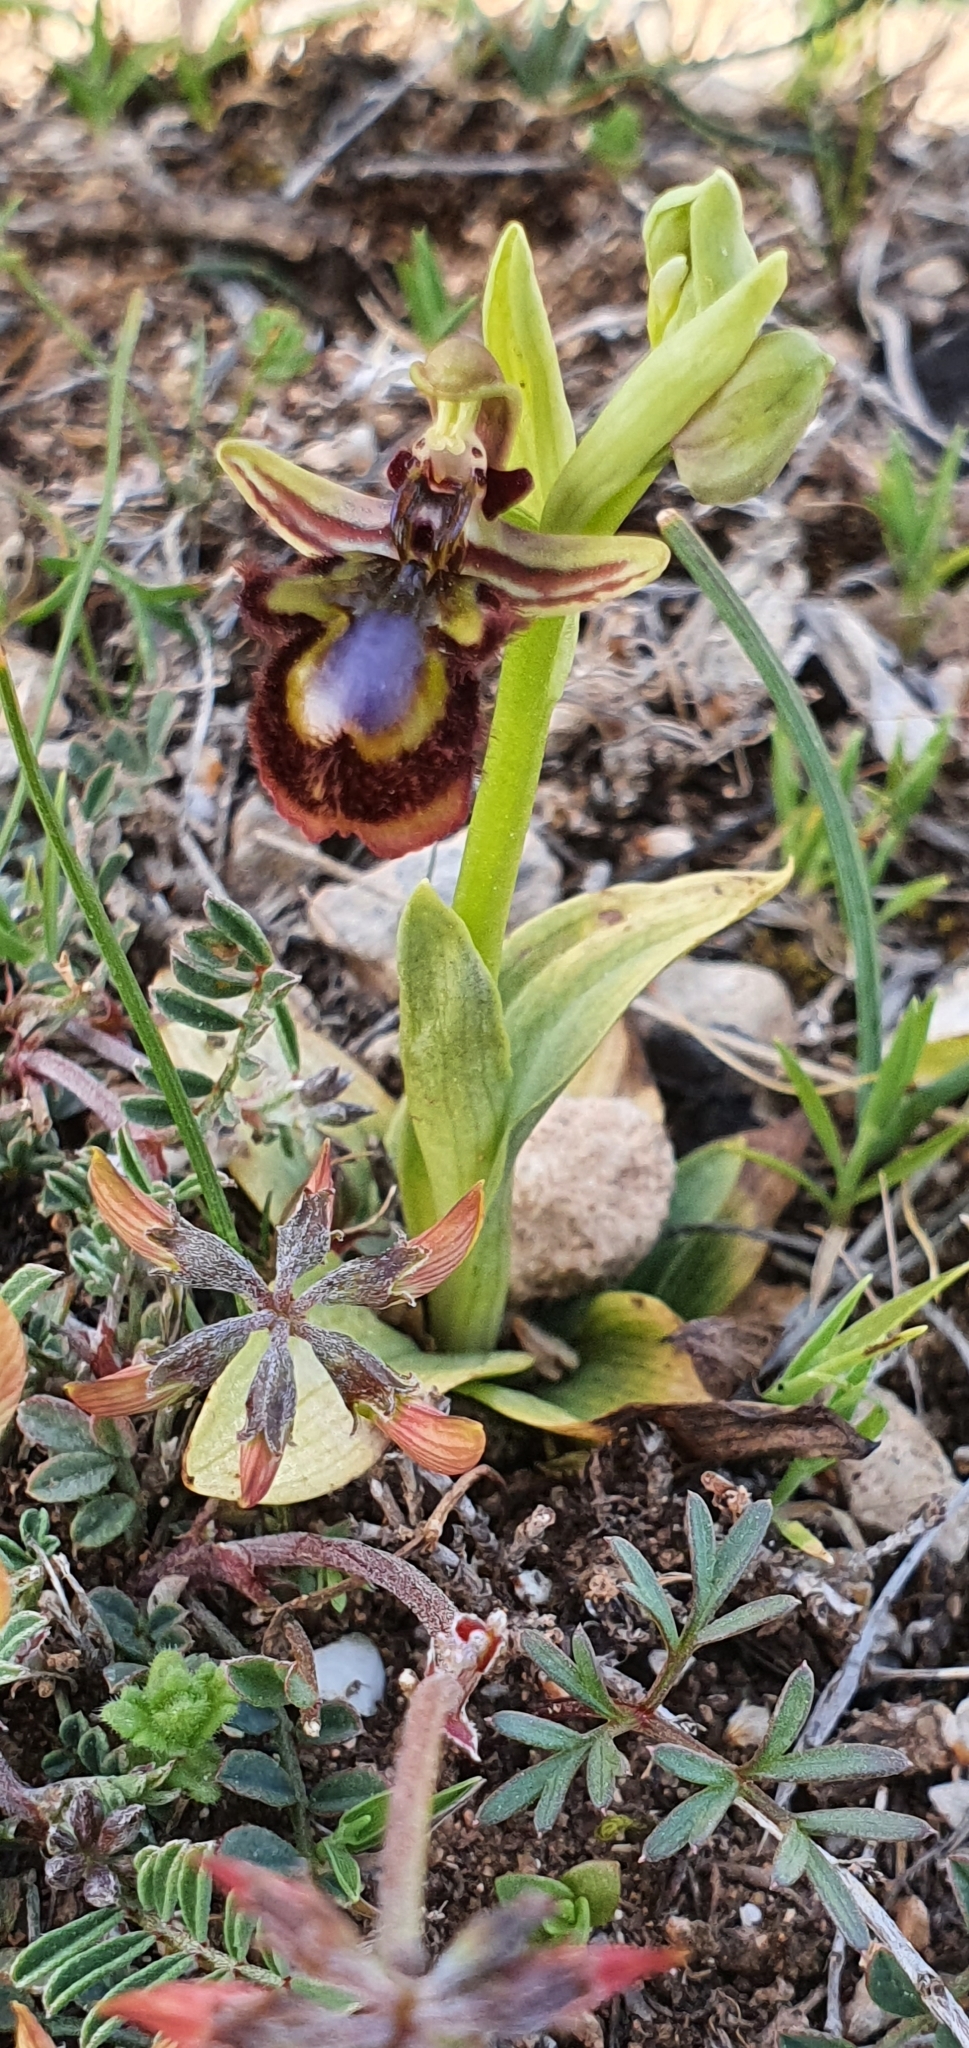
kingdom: Plantae
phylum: Tracheophyta
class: Liliopsida
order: Asparagales
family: Orchidaceae
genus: Ophrys
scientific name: Ophrys speculum
